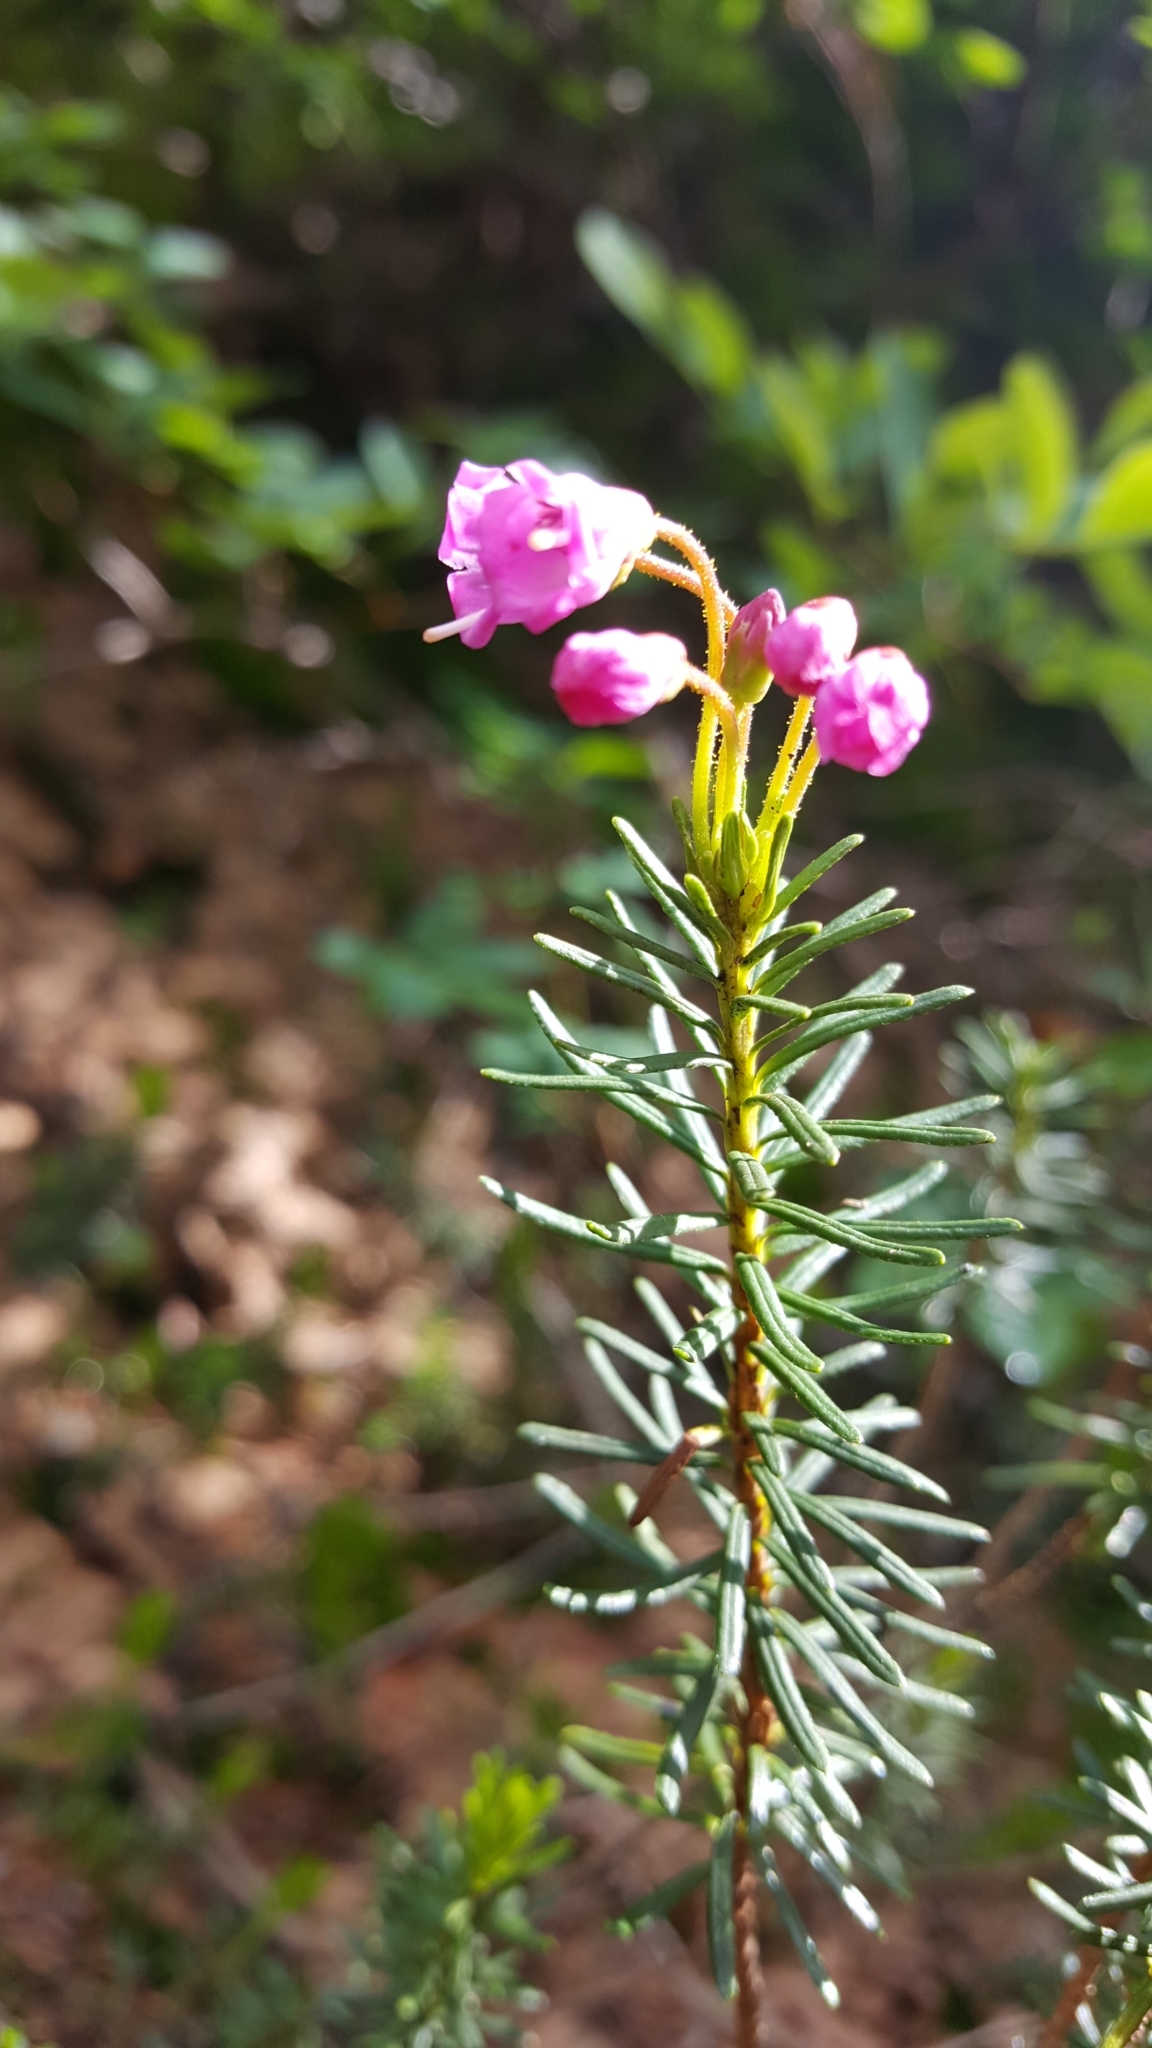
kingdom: Plantae
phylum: Tracheophyta
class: Magnoliopsida
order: Ericales
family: Ericaceae
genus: Phyllodoce
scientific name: Phyllodoce empetriformis
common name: Pink mountain heather
